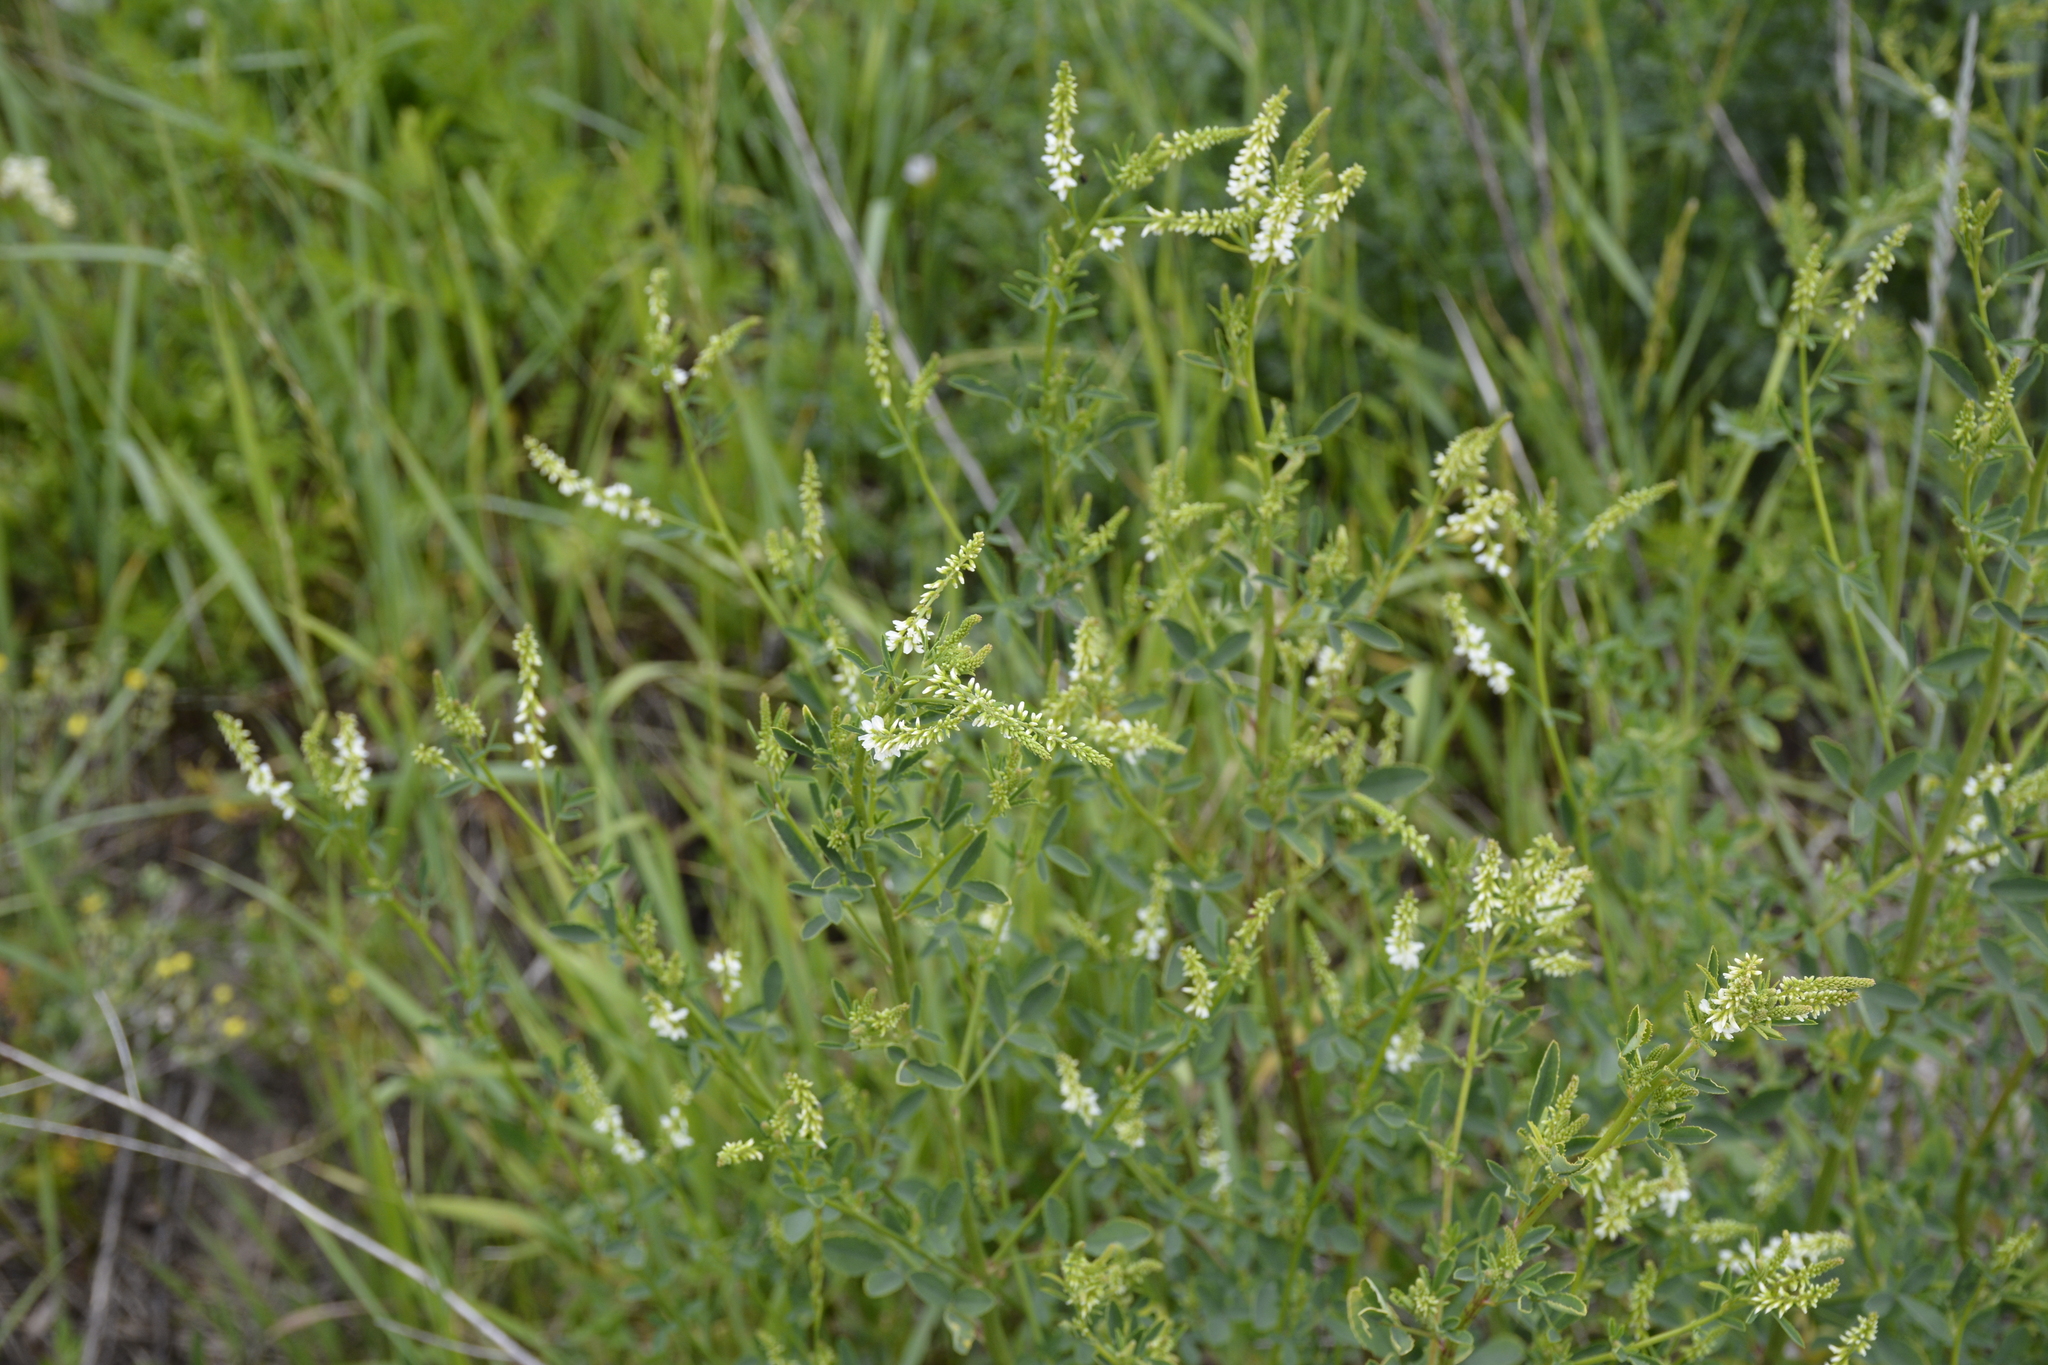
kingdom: Plantae
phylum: Tracheophyta
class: Magnoliopsida
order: Fabales
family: Fabaceae
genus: Melilotus
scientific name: Melilotus albus
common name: White melilot
